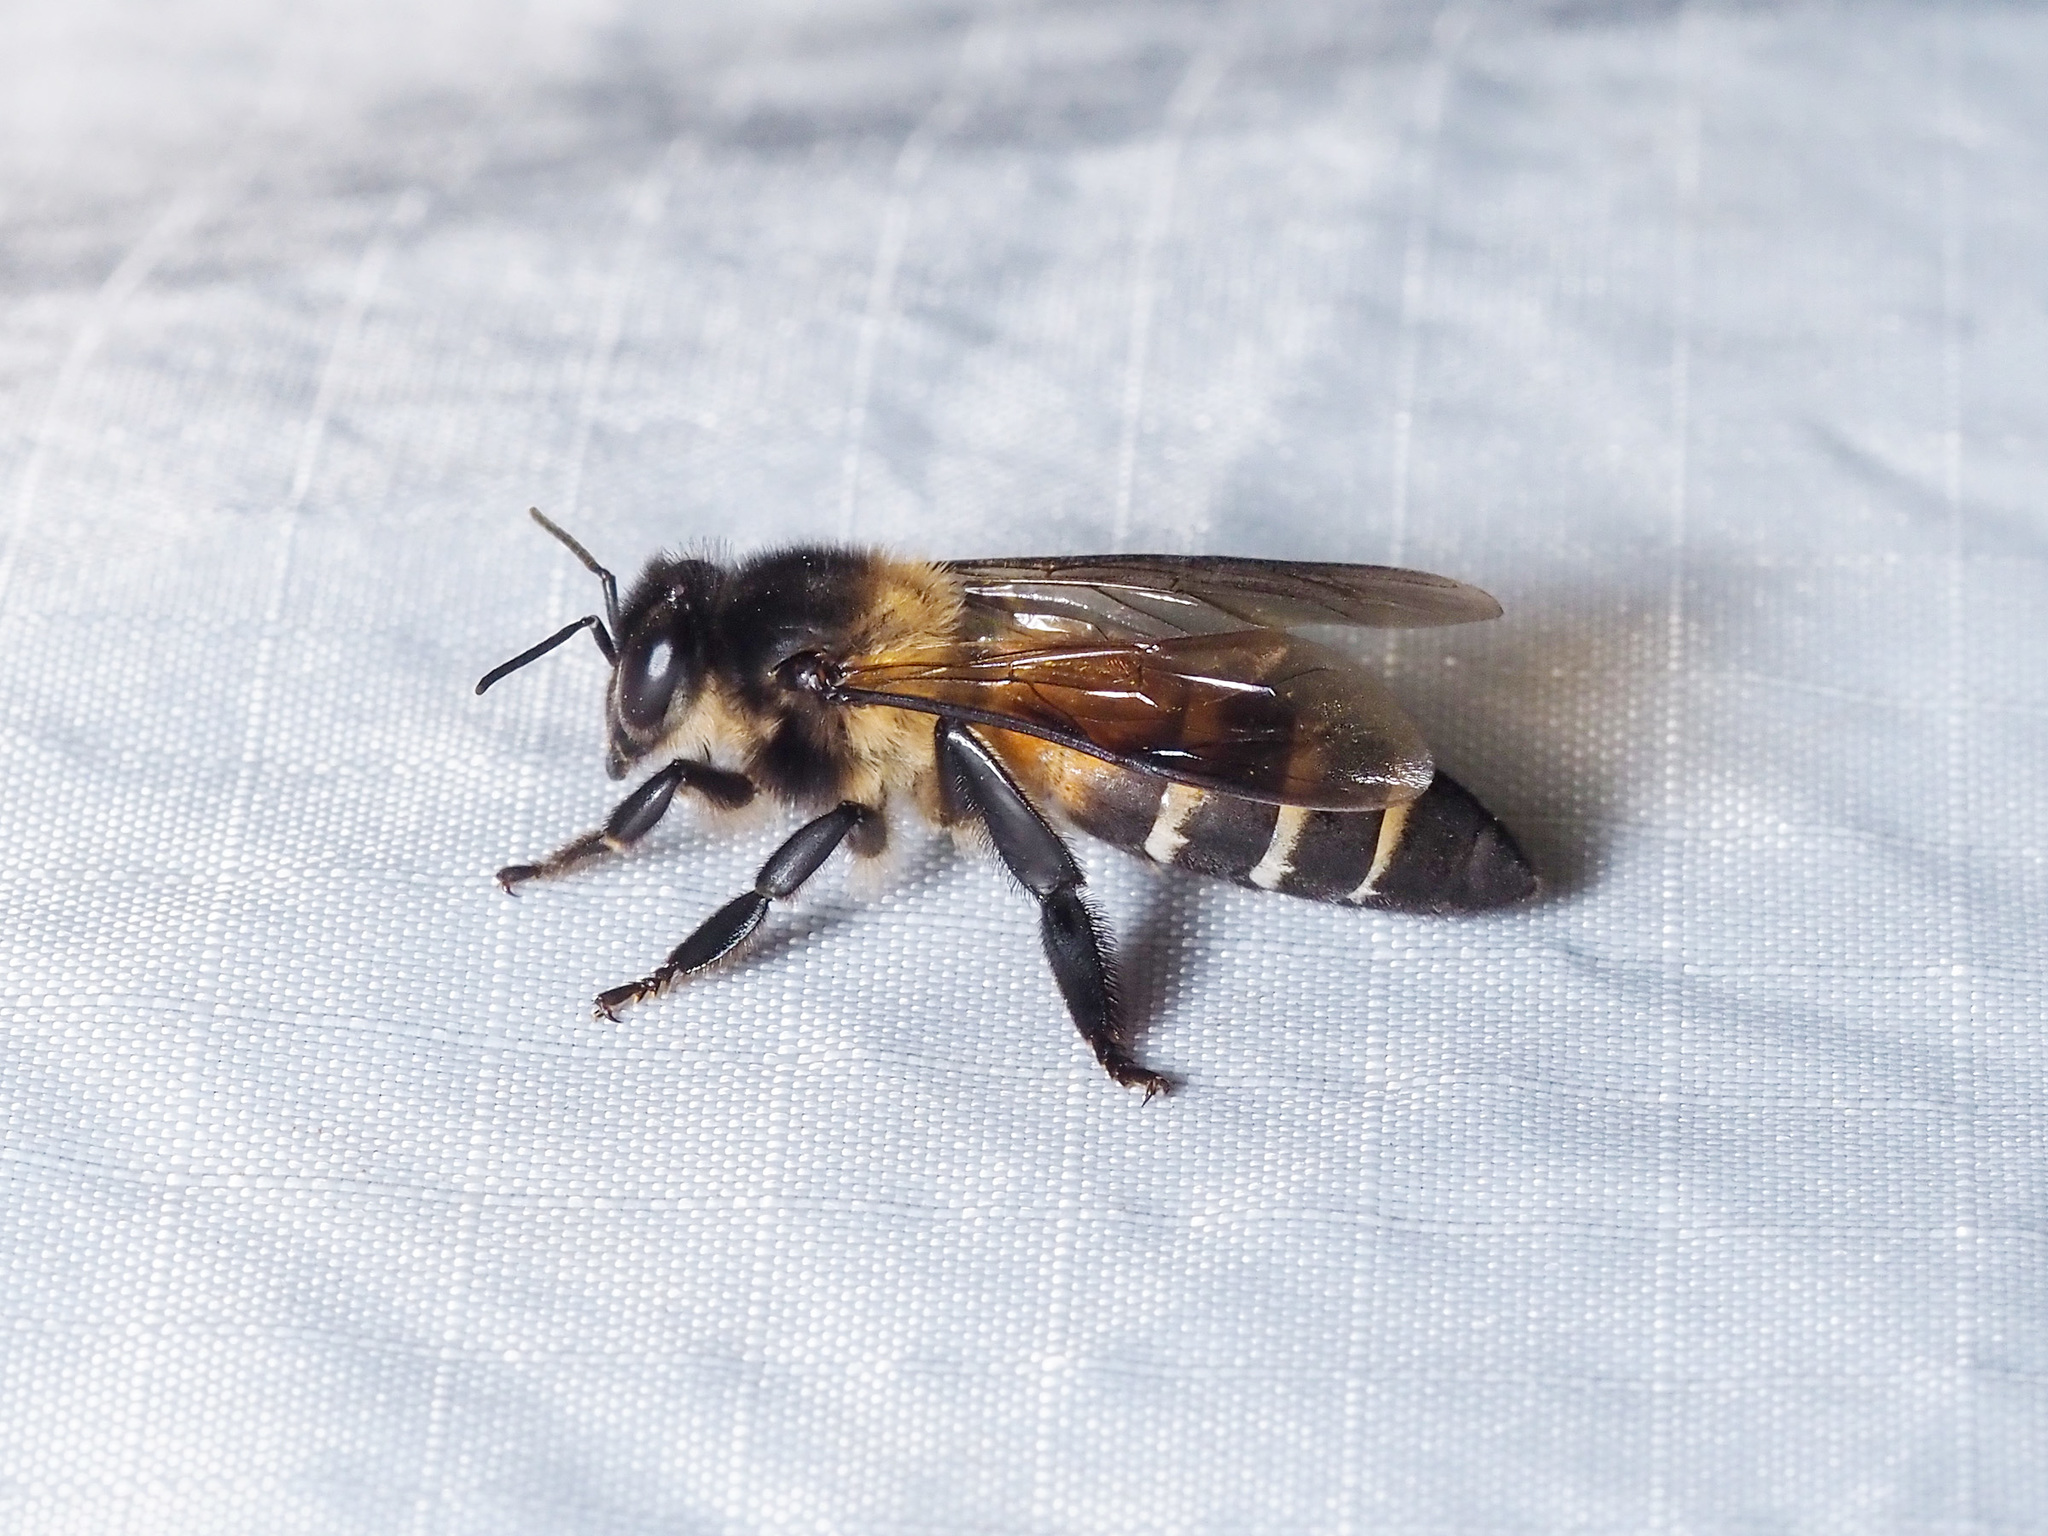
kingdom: Animalia
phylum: Arthropoda
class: Insecta
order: Hymenoptera
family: Apidae
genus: Apis
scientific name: Apis dorsata
